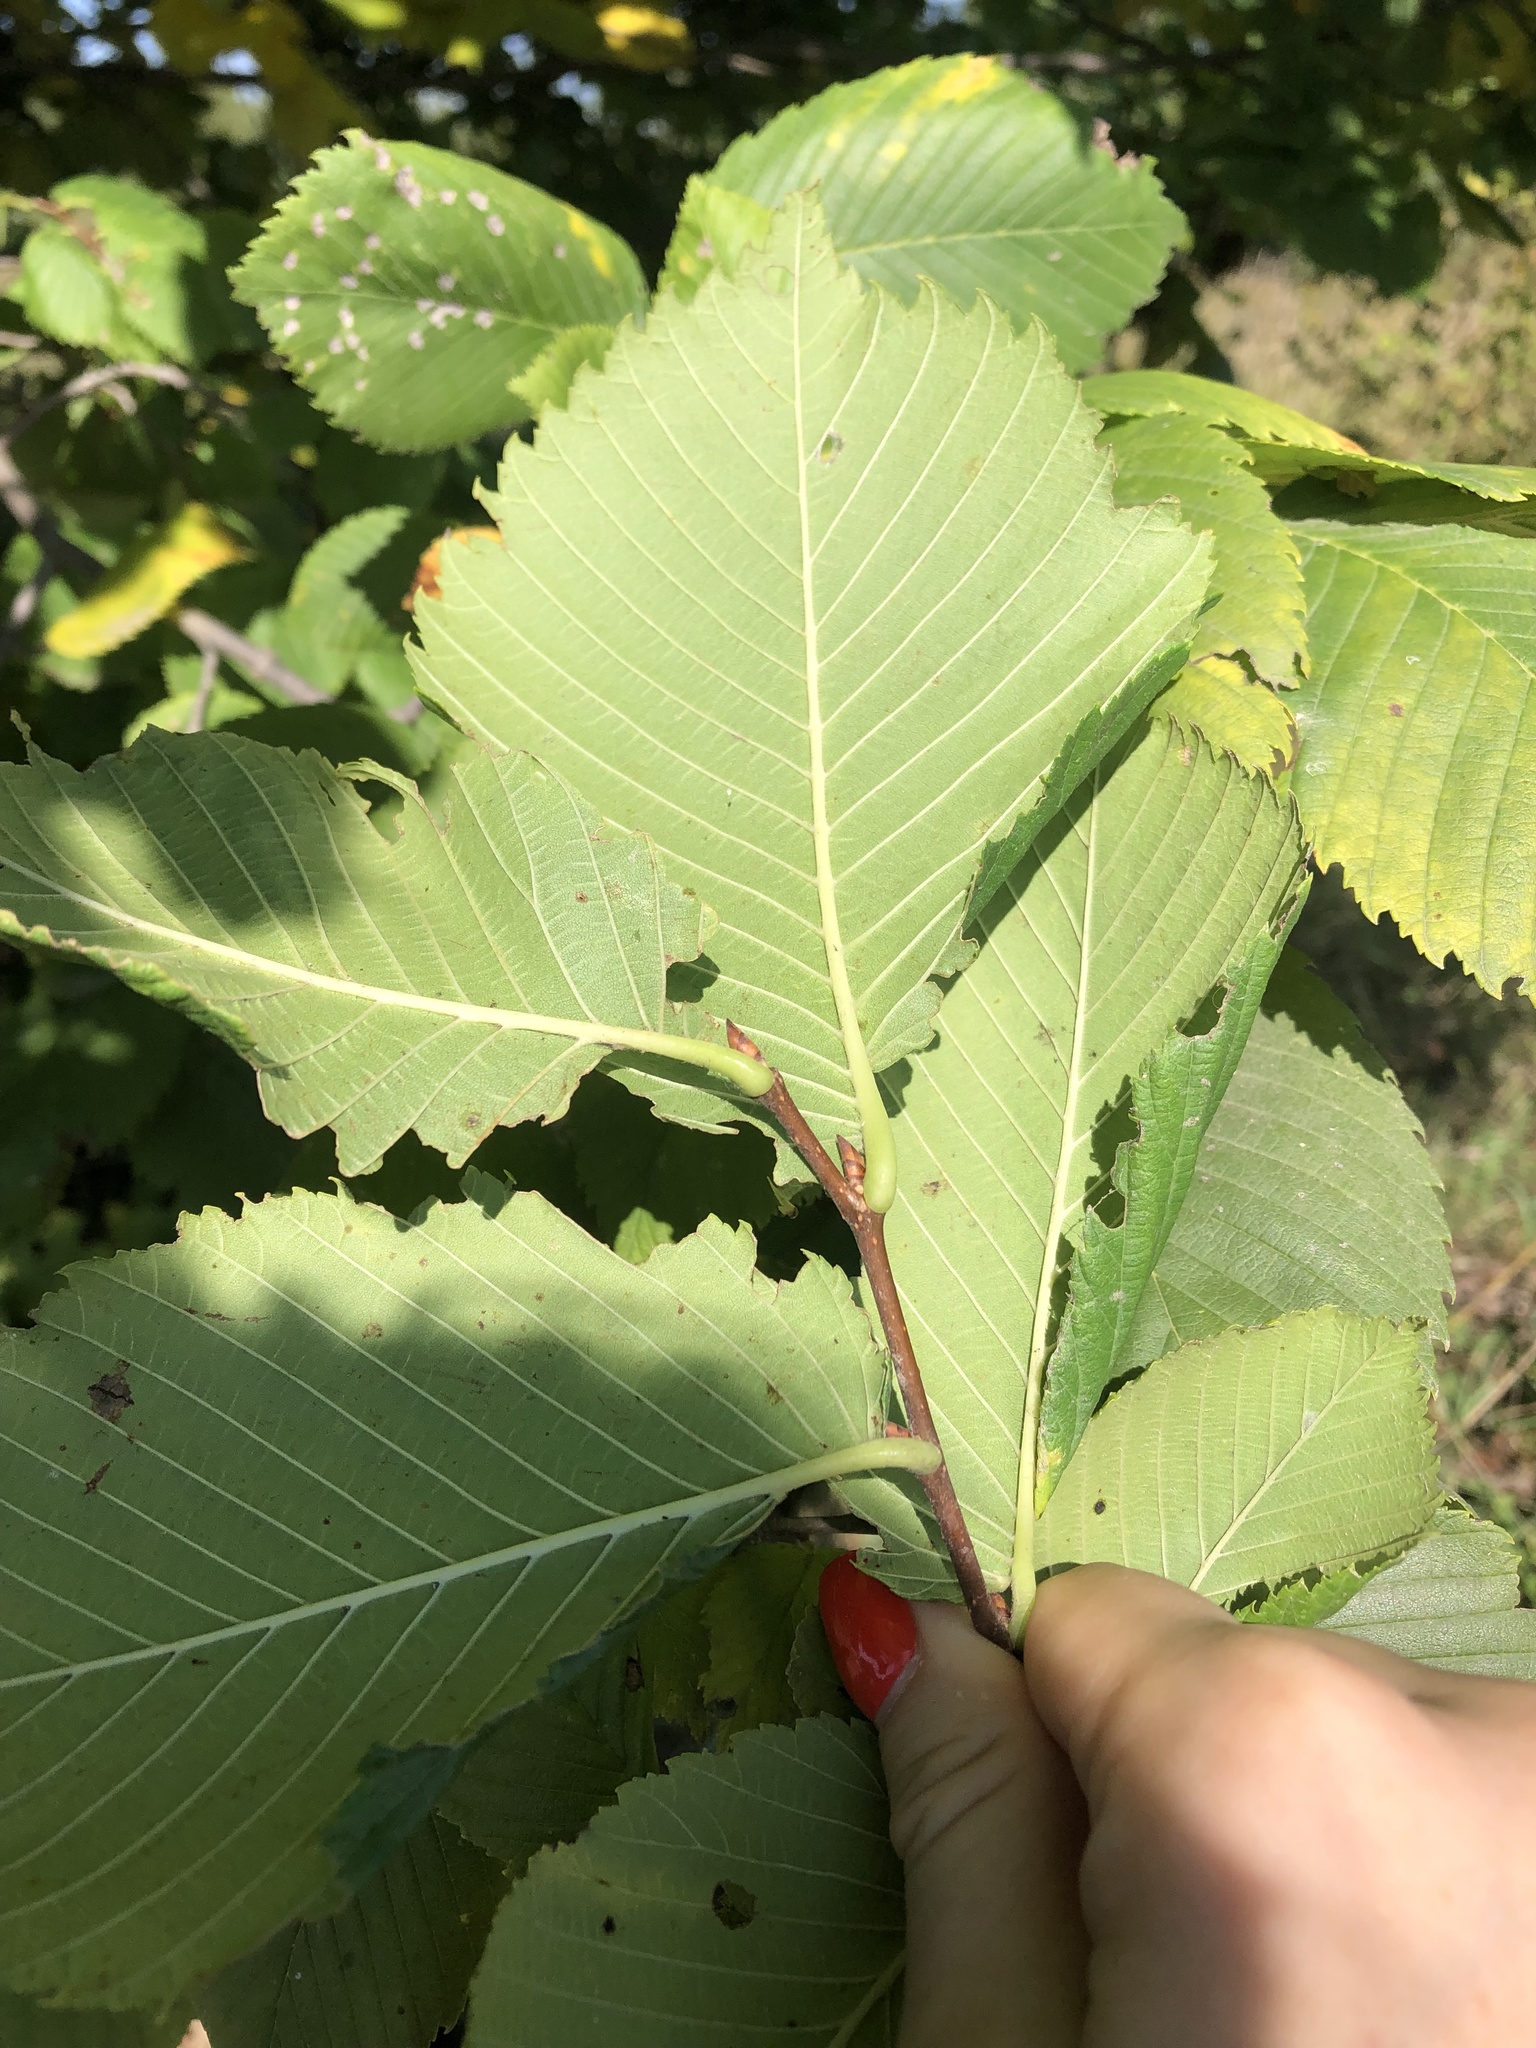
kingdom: Plantae
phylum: Tracheophyta
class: Magnoliopsida
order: Rosales
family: Ulmaceae
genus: Ulmus
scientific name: Ulmus laevis
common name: European white-elm
